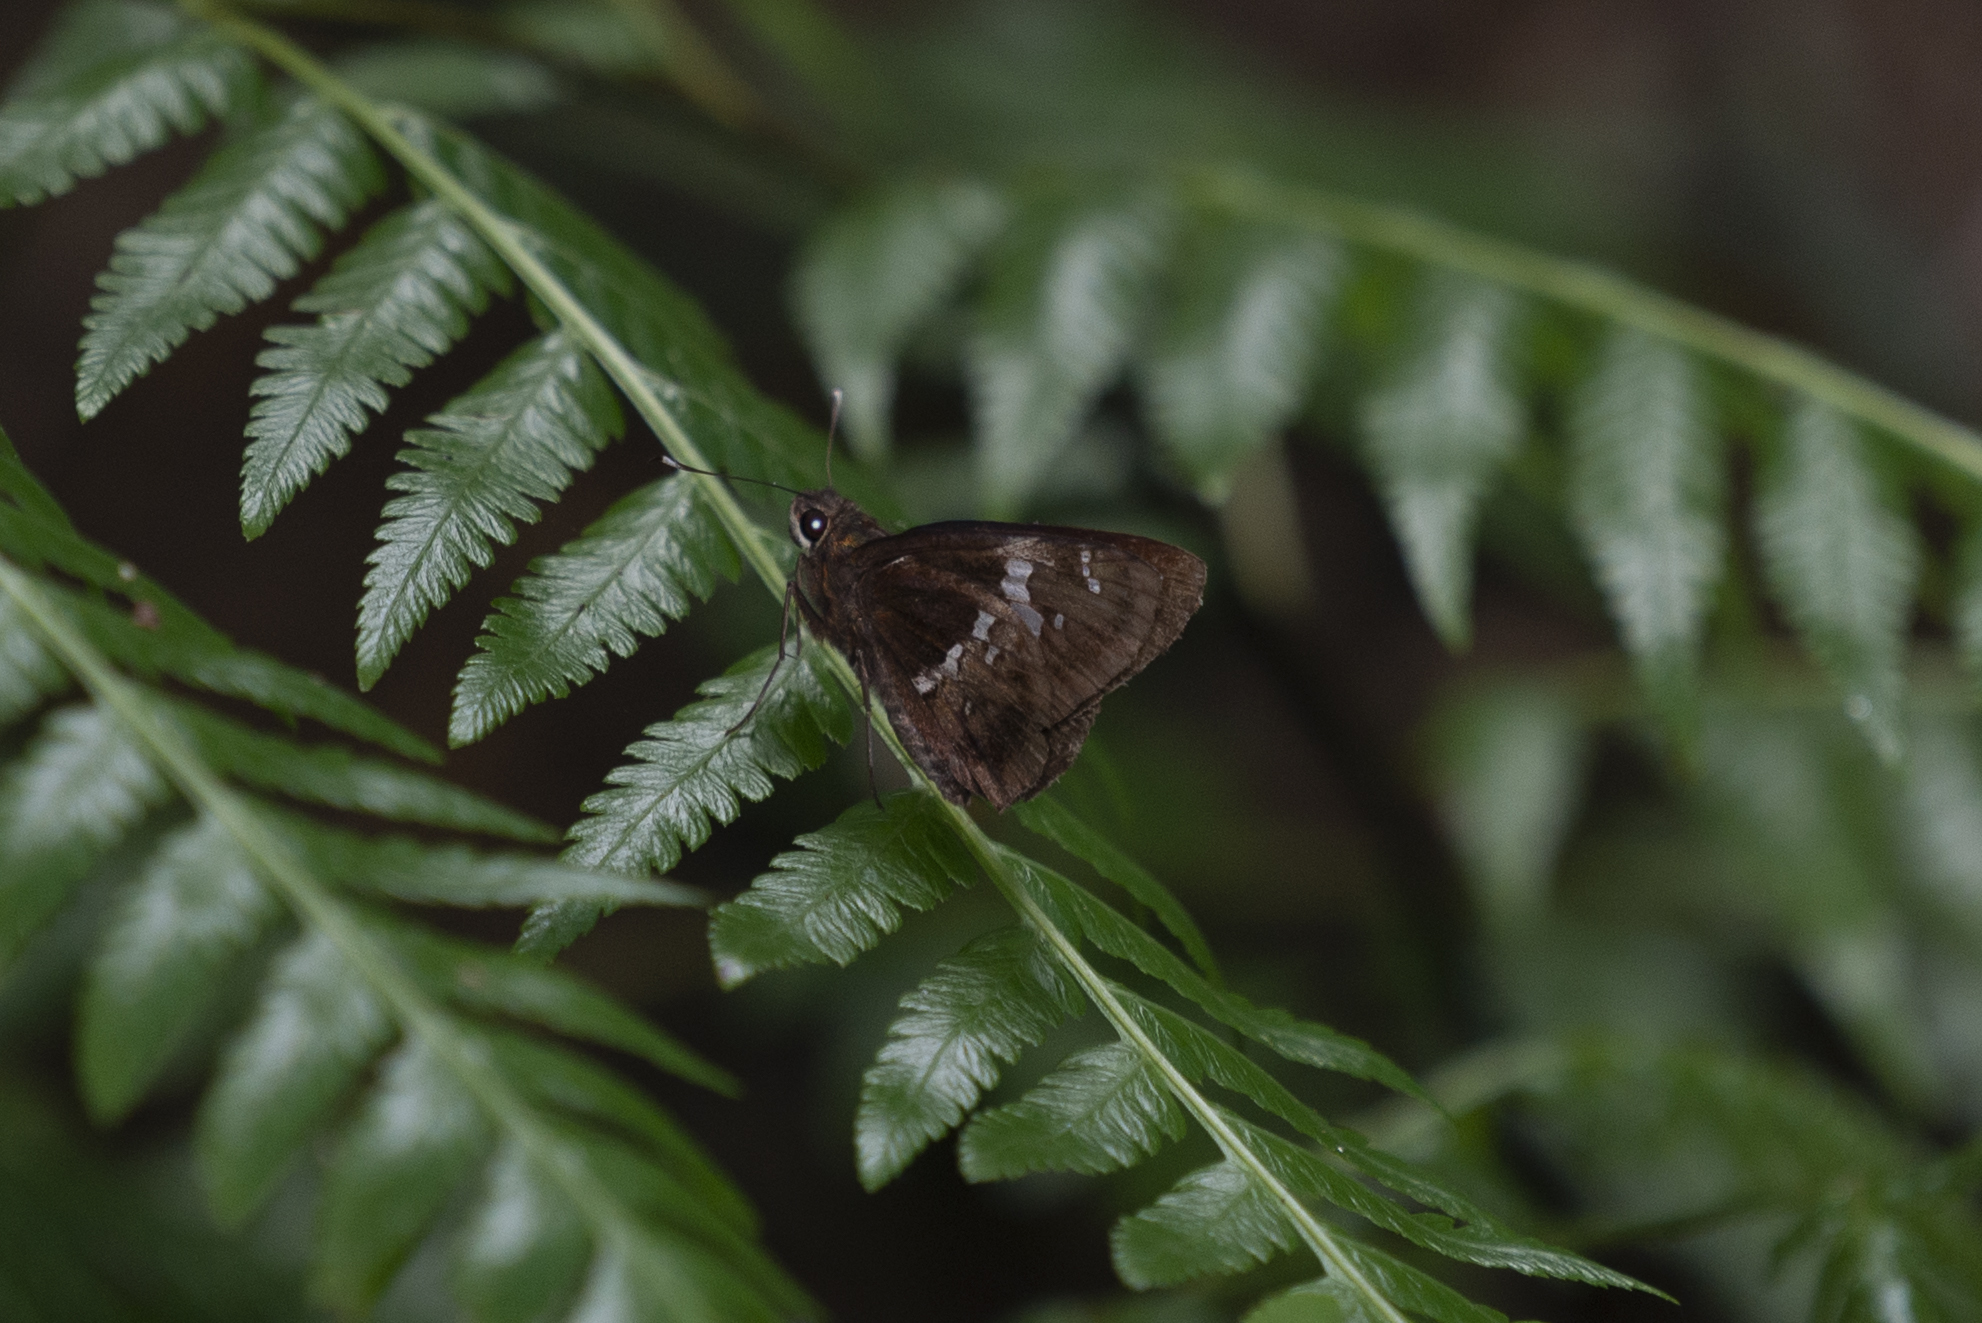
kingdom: Animalia
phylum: Arthropoda
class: Insecta
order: Lepidoptera
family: Hesperiidae
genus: Hyarotis
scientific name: Hyarotis adrastus
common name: Tree flitter
